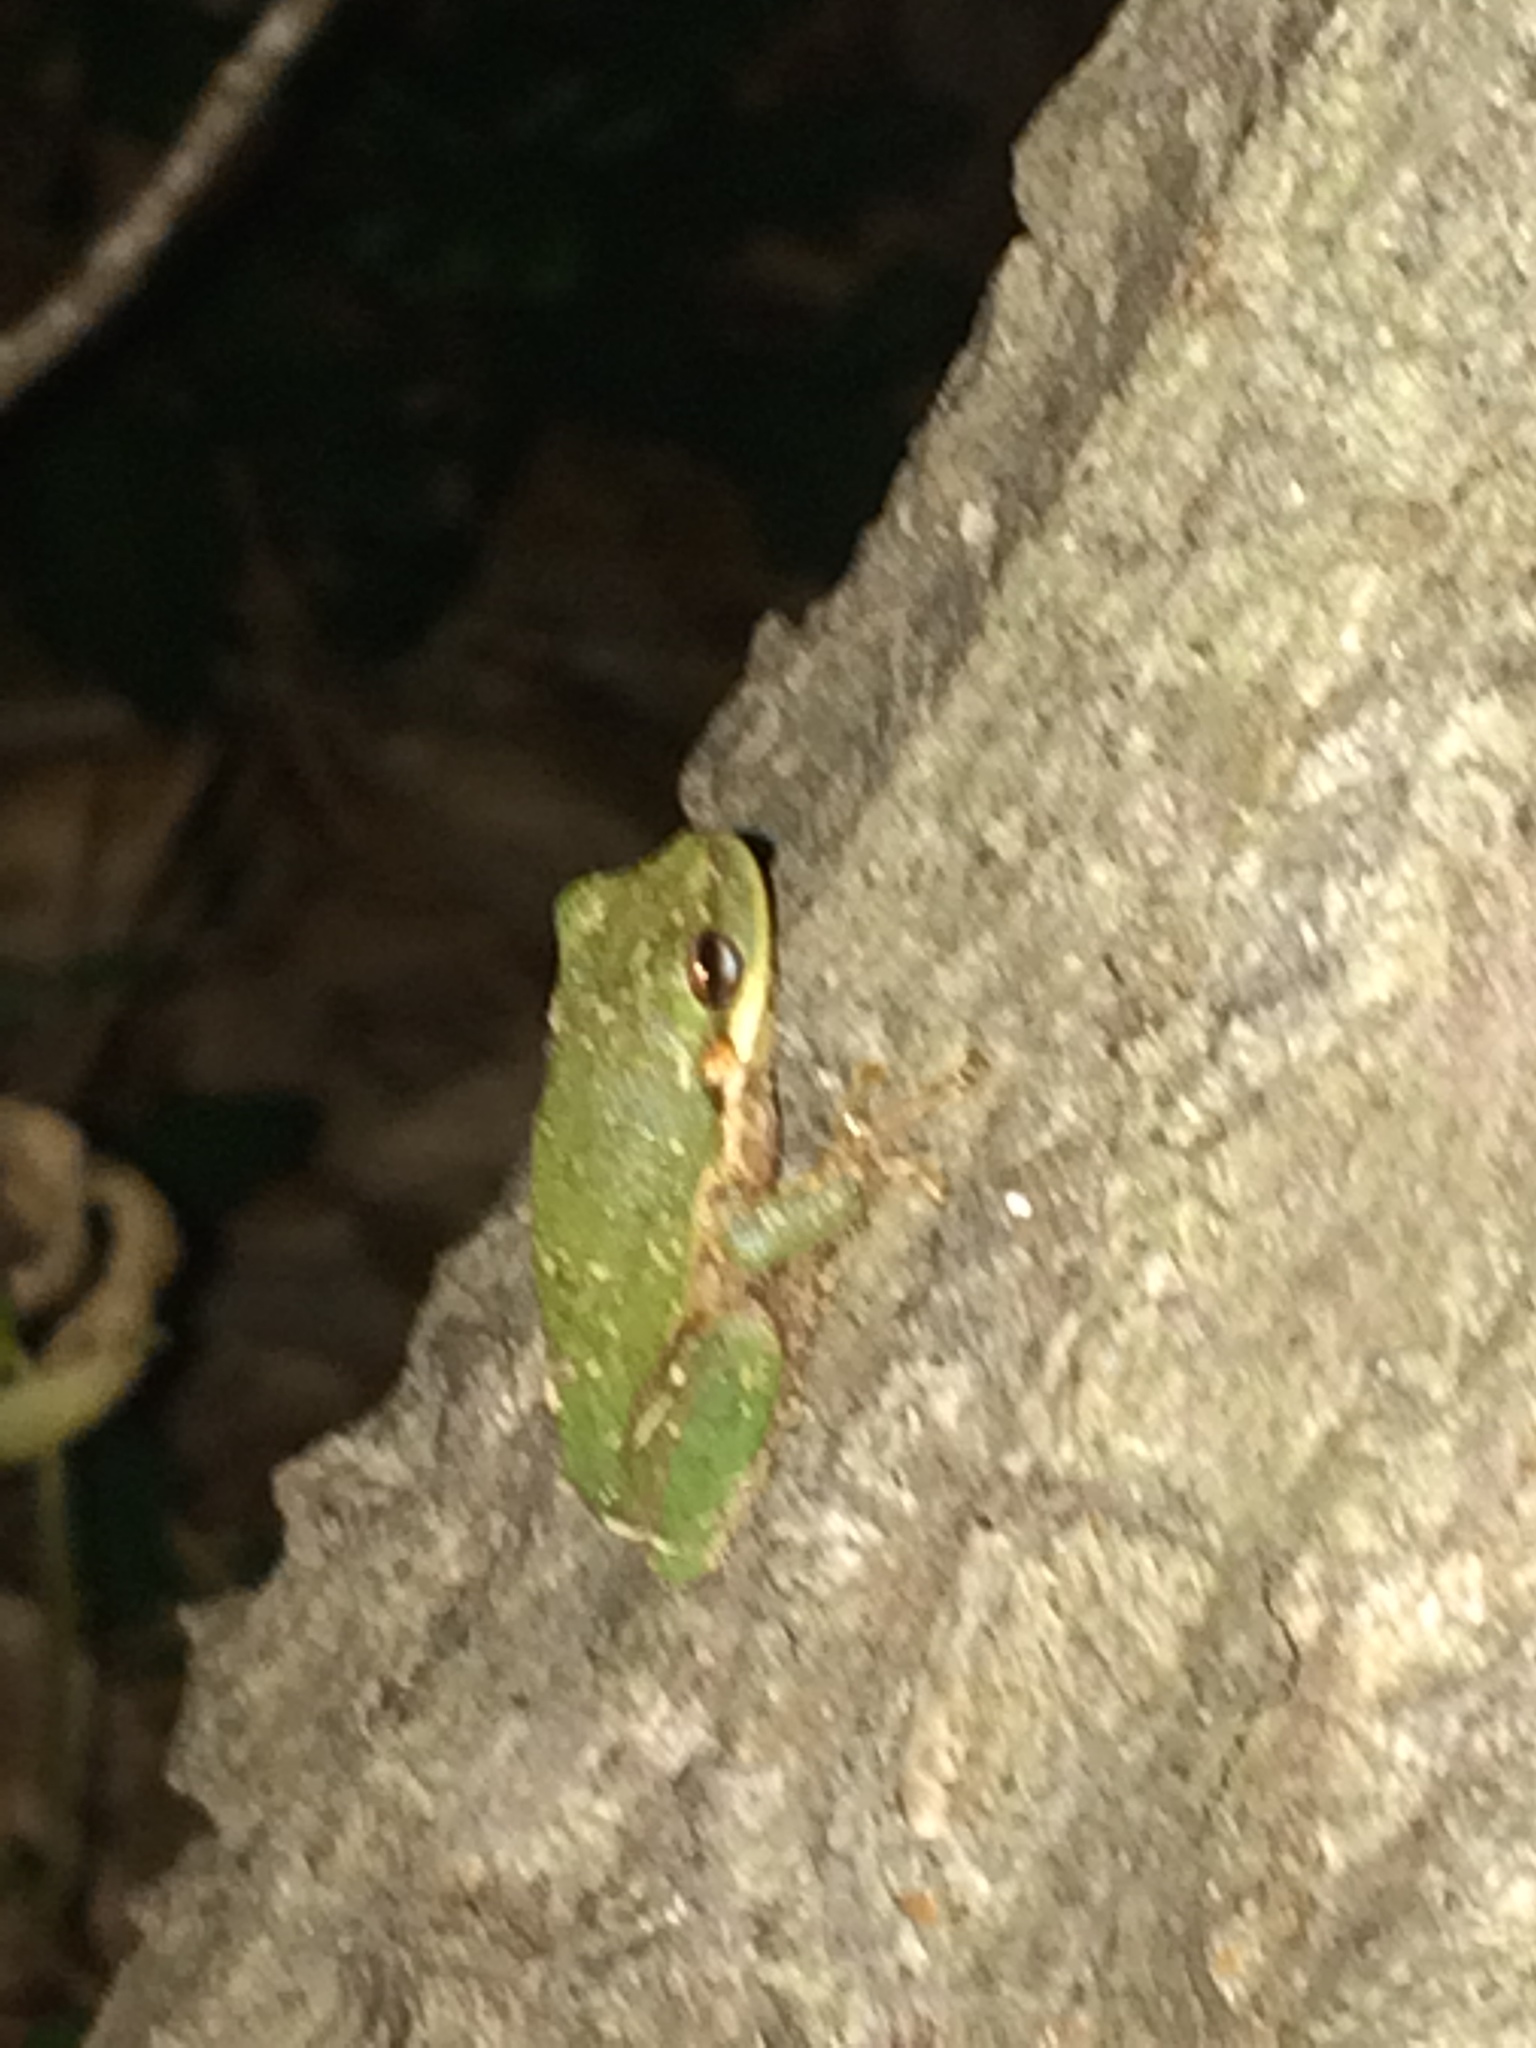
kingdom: Animalia
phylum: Chordata
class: Amphibia
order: Anura
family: Hylidae
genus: Dryophytes
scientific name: Dryophytes squirellus
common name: Squirrel treefrog
